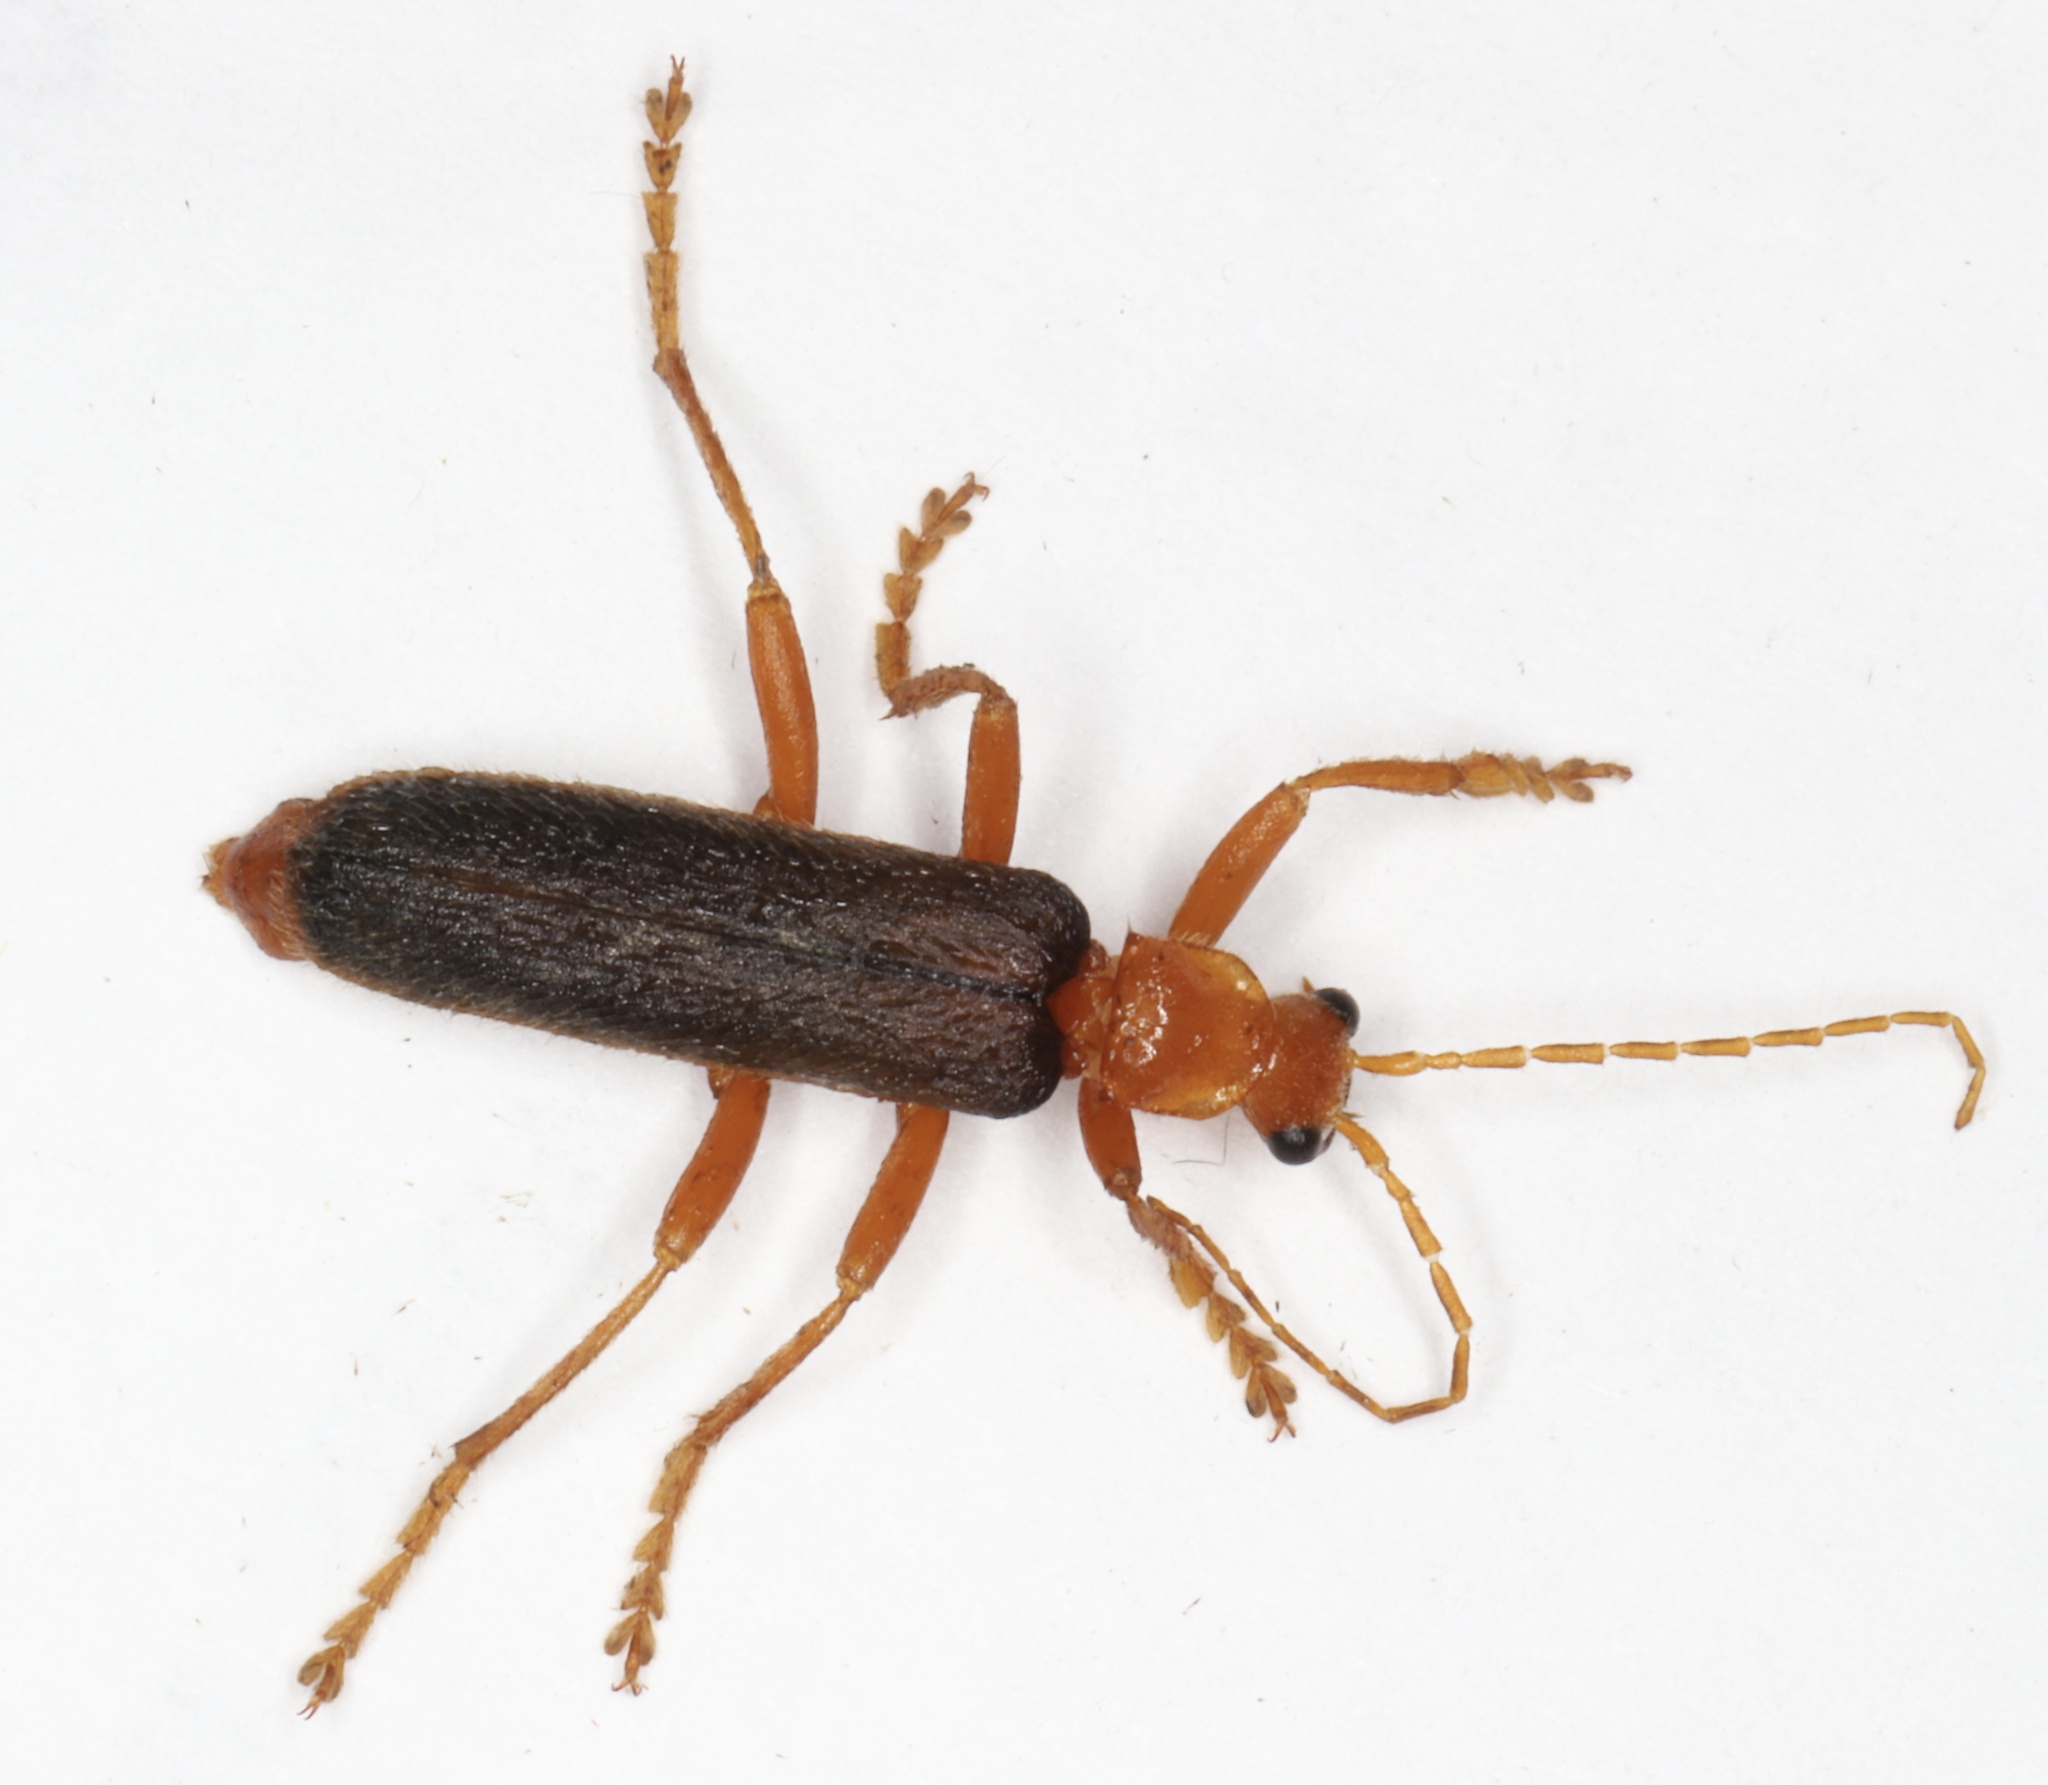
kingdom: Animalia
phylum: Arthropoda
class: Insecta
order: Coleoptera
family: Cantharidae
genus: Pacificanthia
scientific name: Pacificanthia rotundicollis
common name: Brown leatherwing beetle
